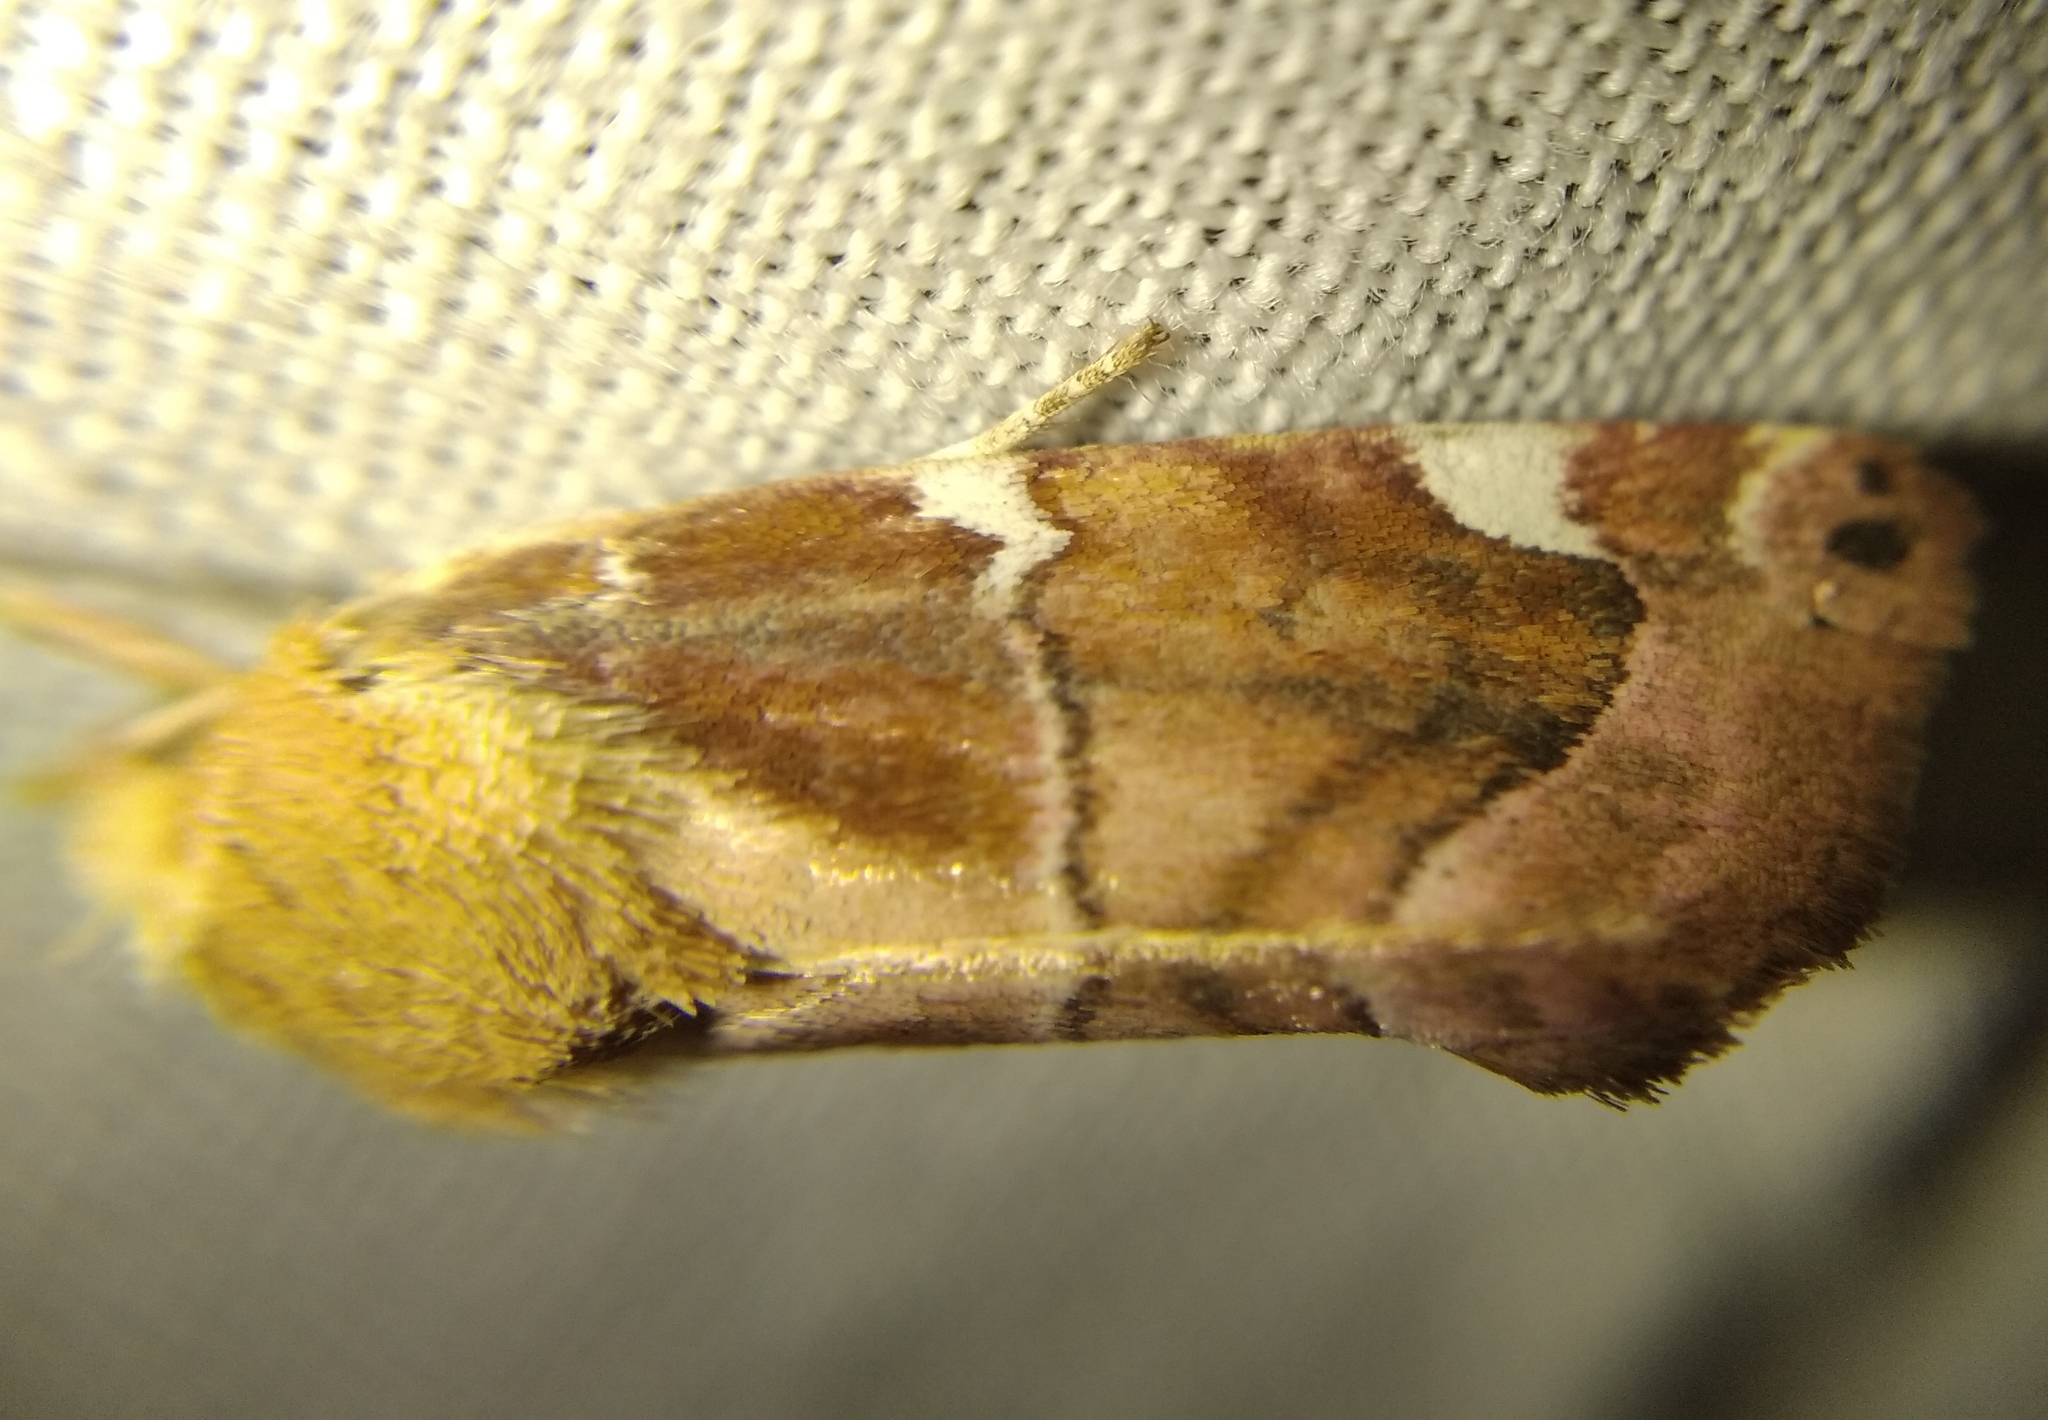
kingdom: Animalia
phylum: Arthropoda
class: Insecta
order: Lepidoptera
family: Noctuidae
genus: Cosmia
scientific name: Cosmia diffinis
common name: White-spotted pinion
